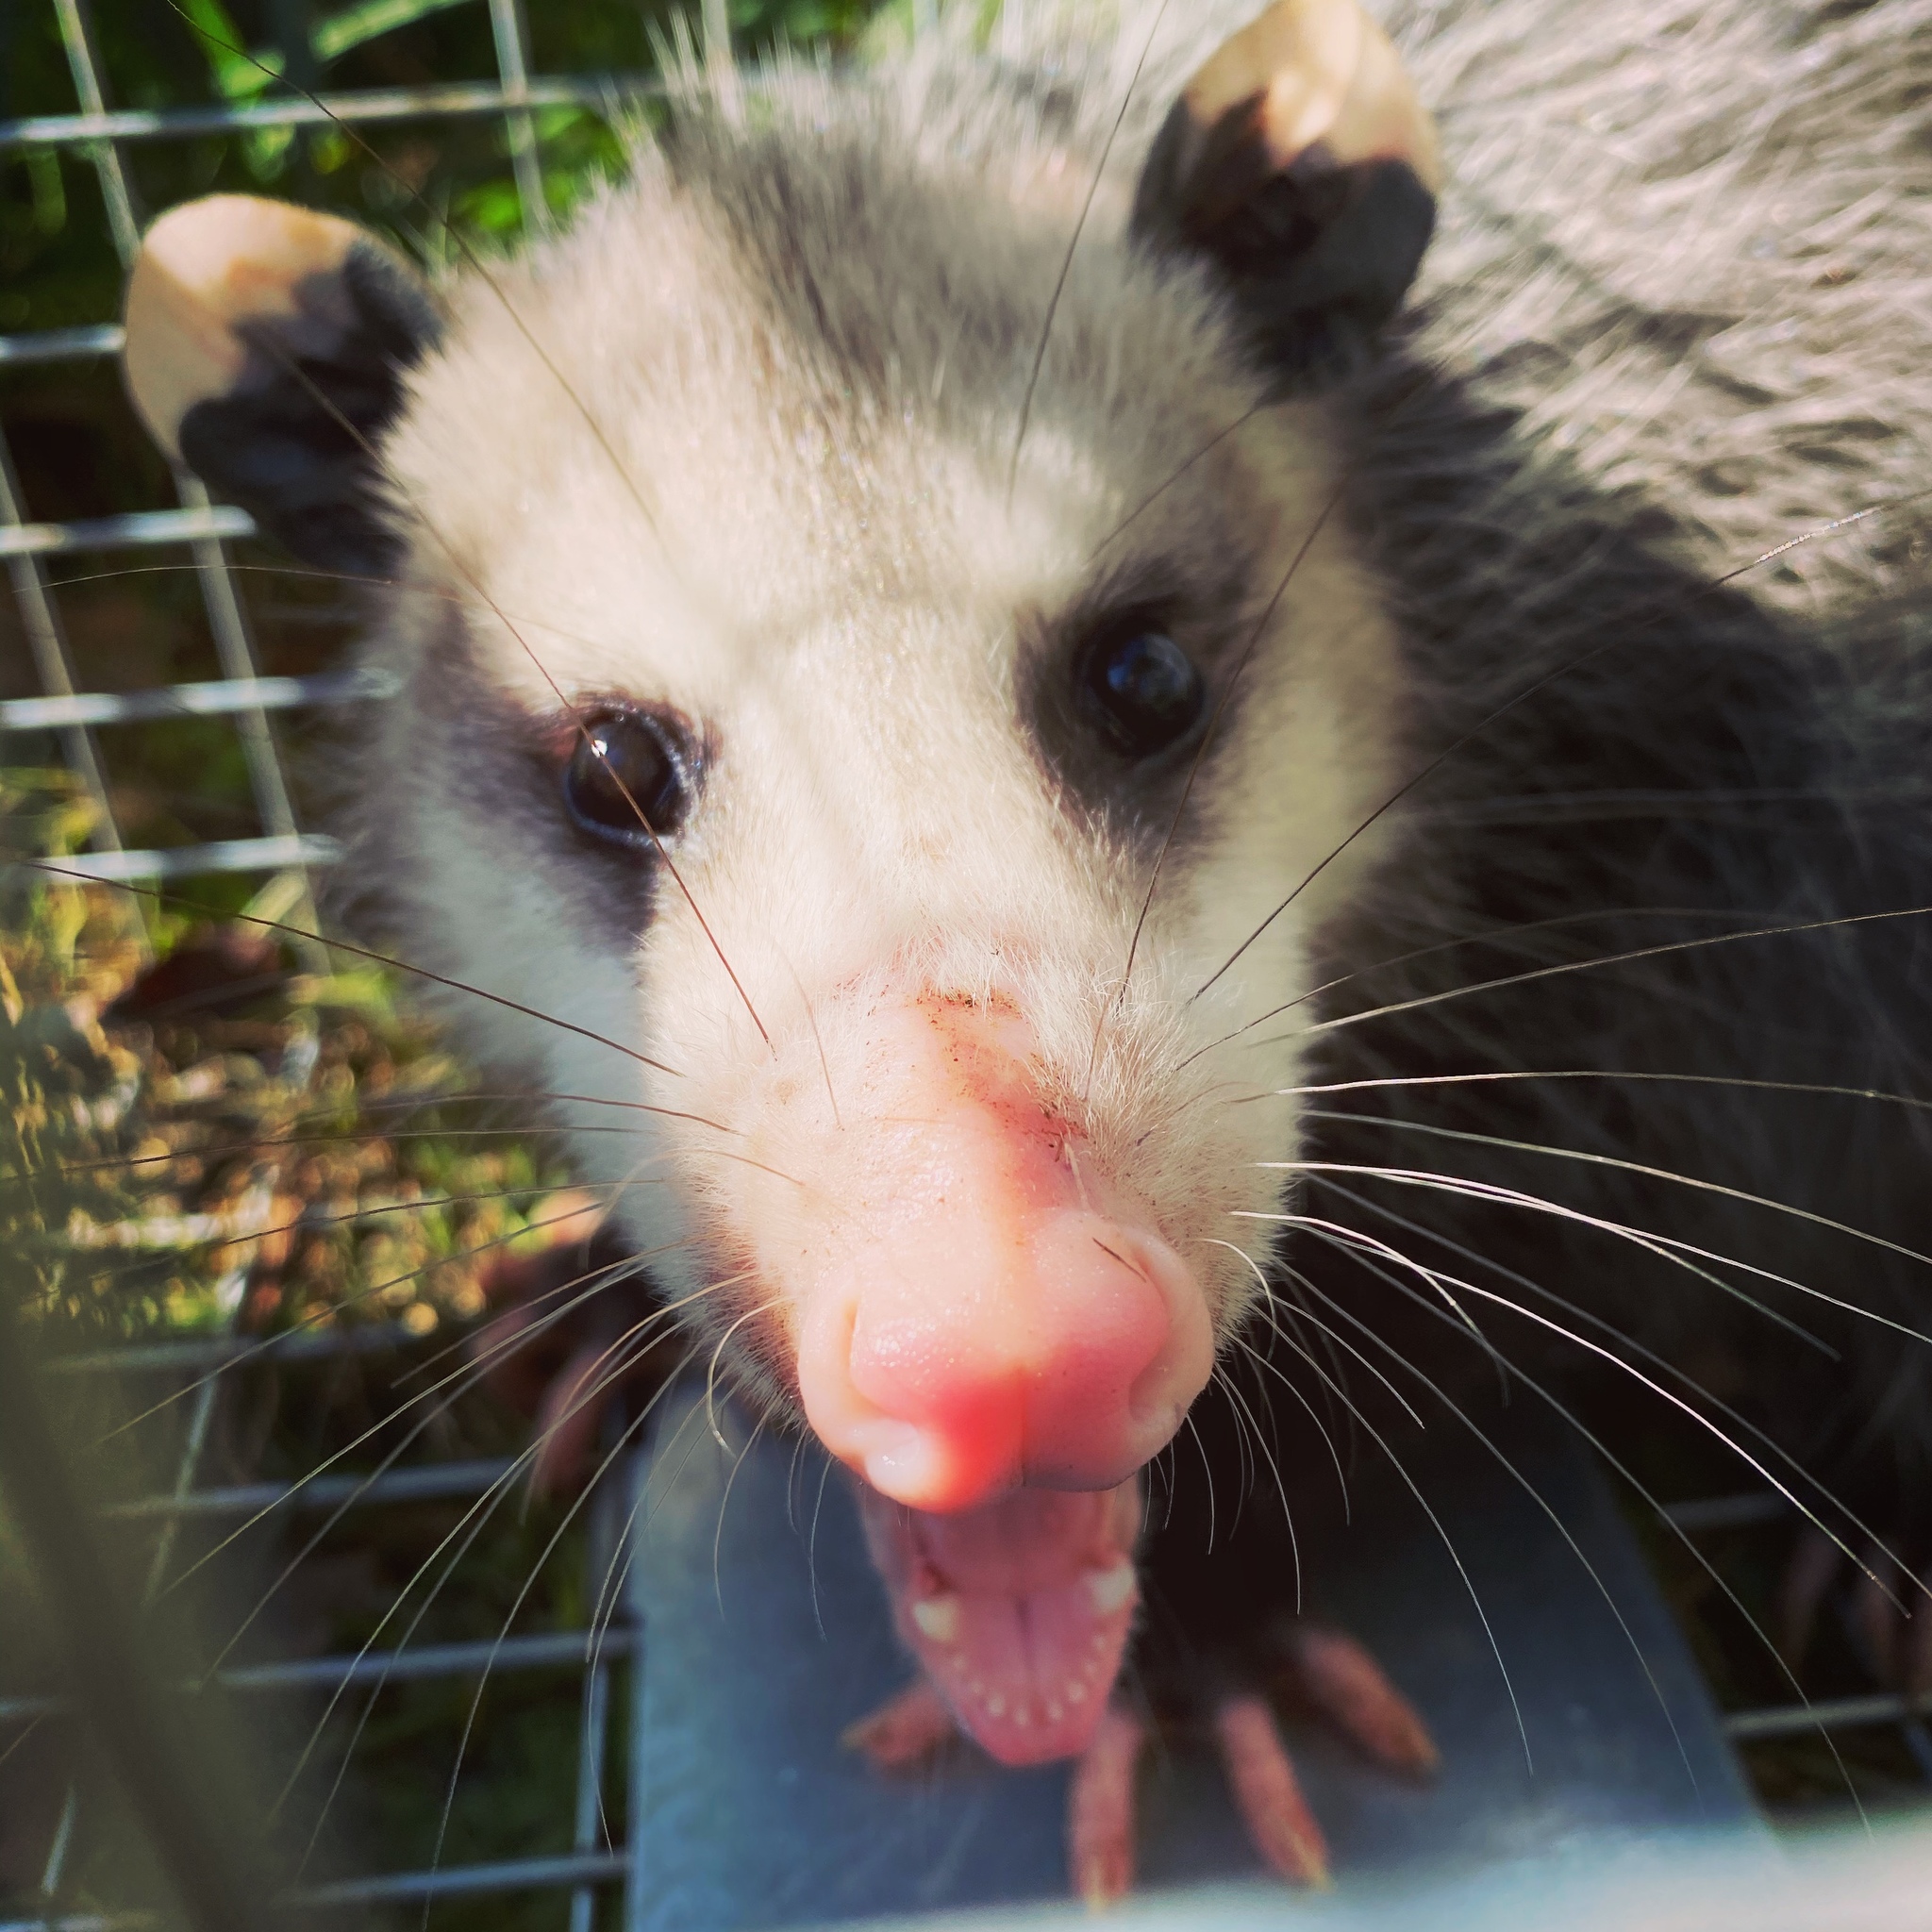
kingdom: Animalia
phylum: Chordata
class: Mammalia
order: Didelphimorphia
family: Didelphidae
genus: Didelphis
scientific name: Didelphis virginiana
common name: Virginia opossum
